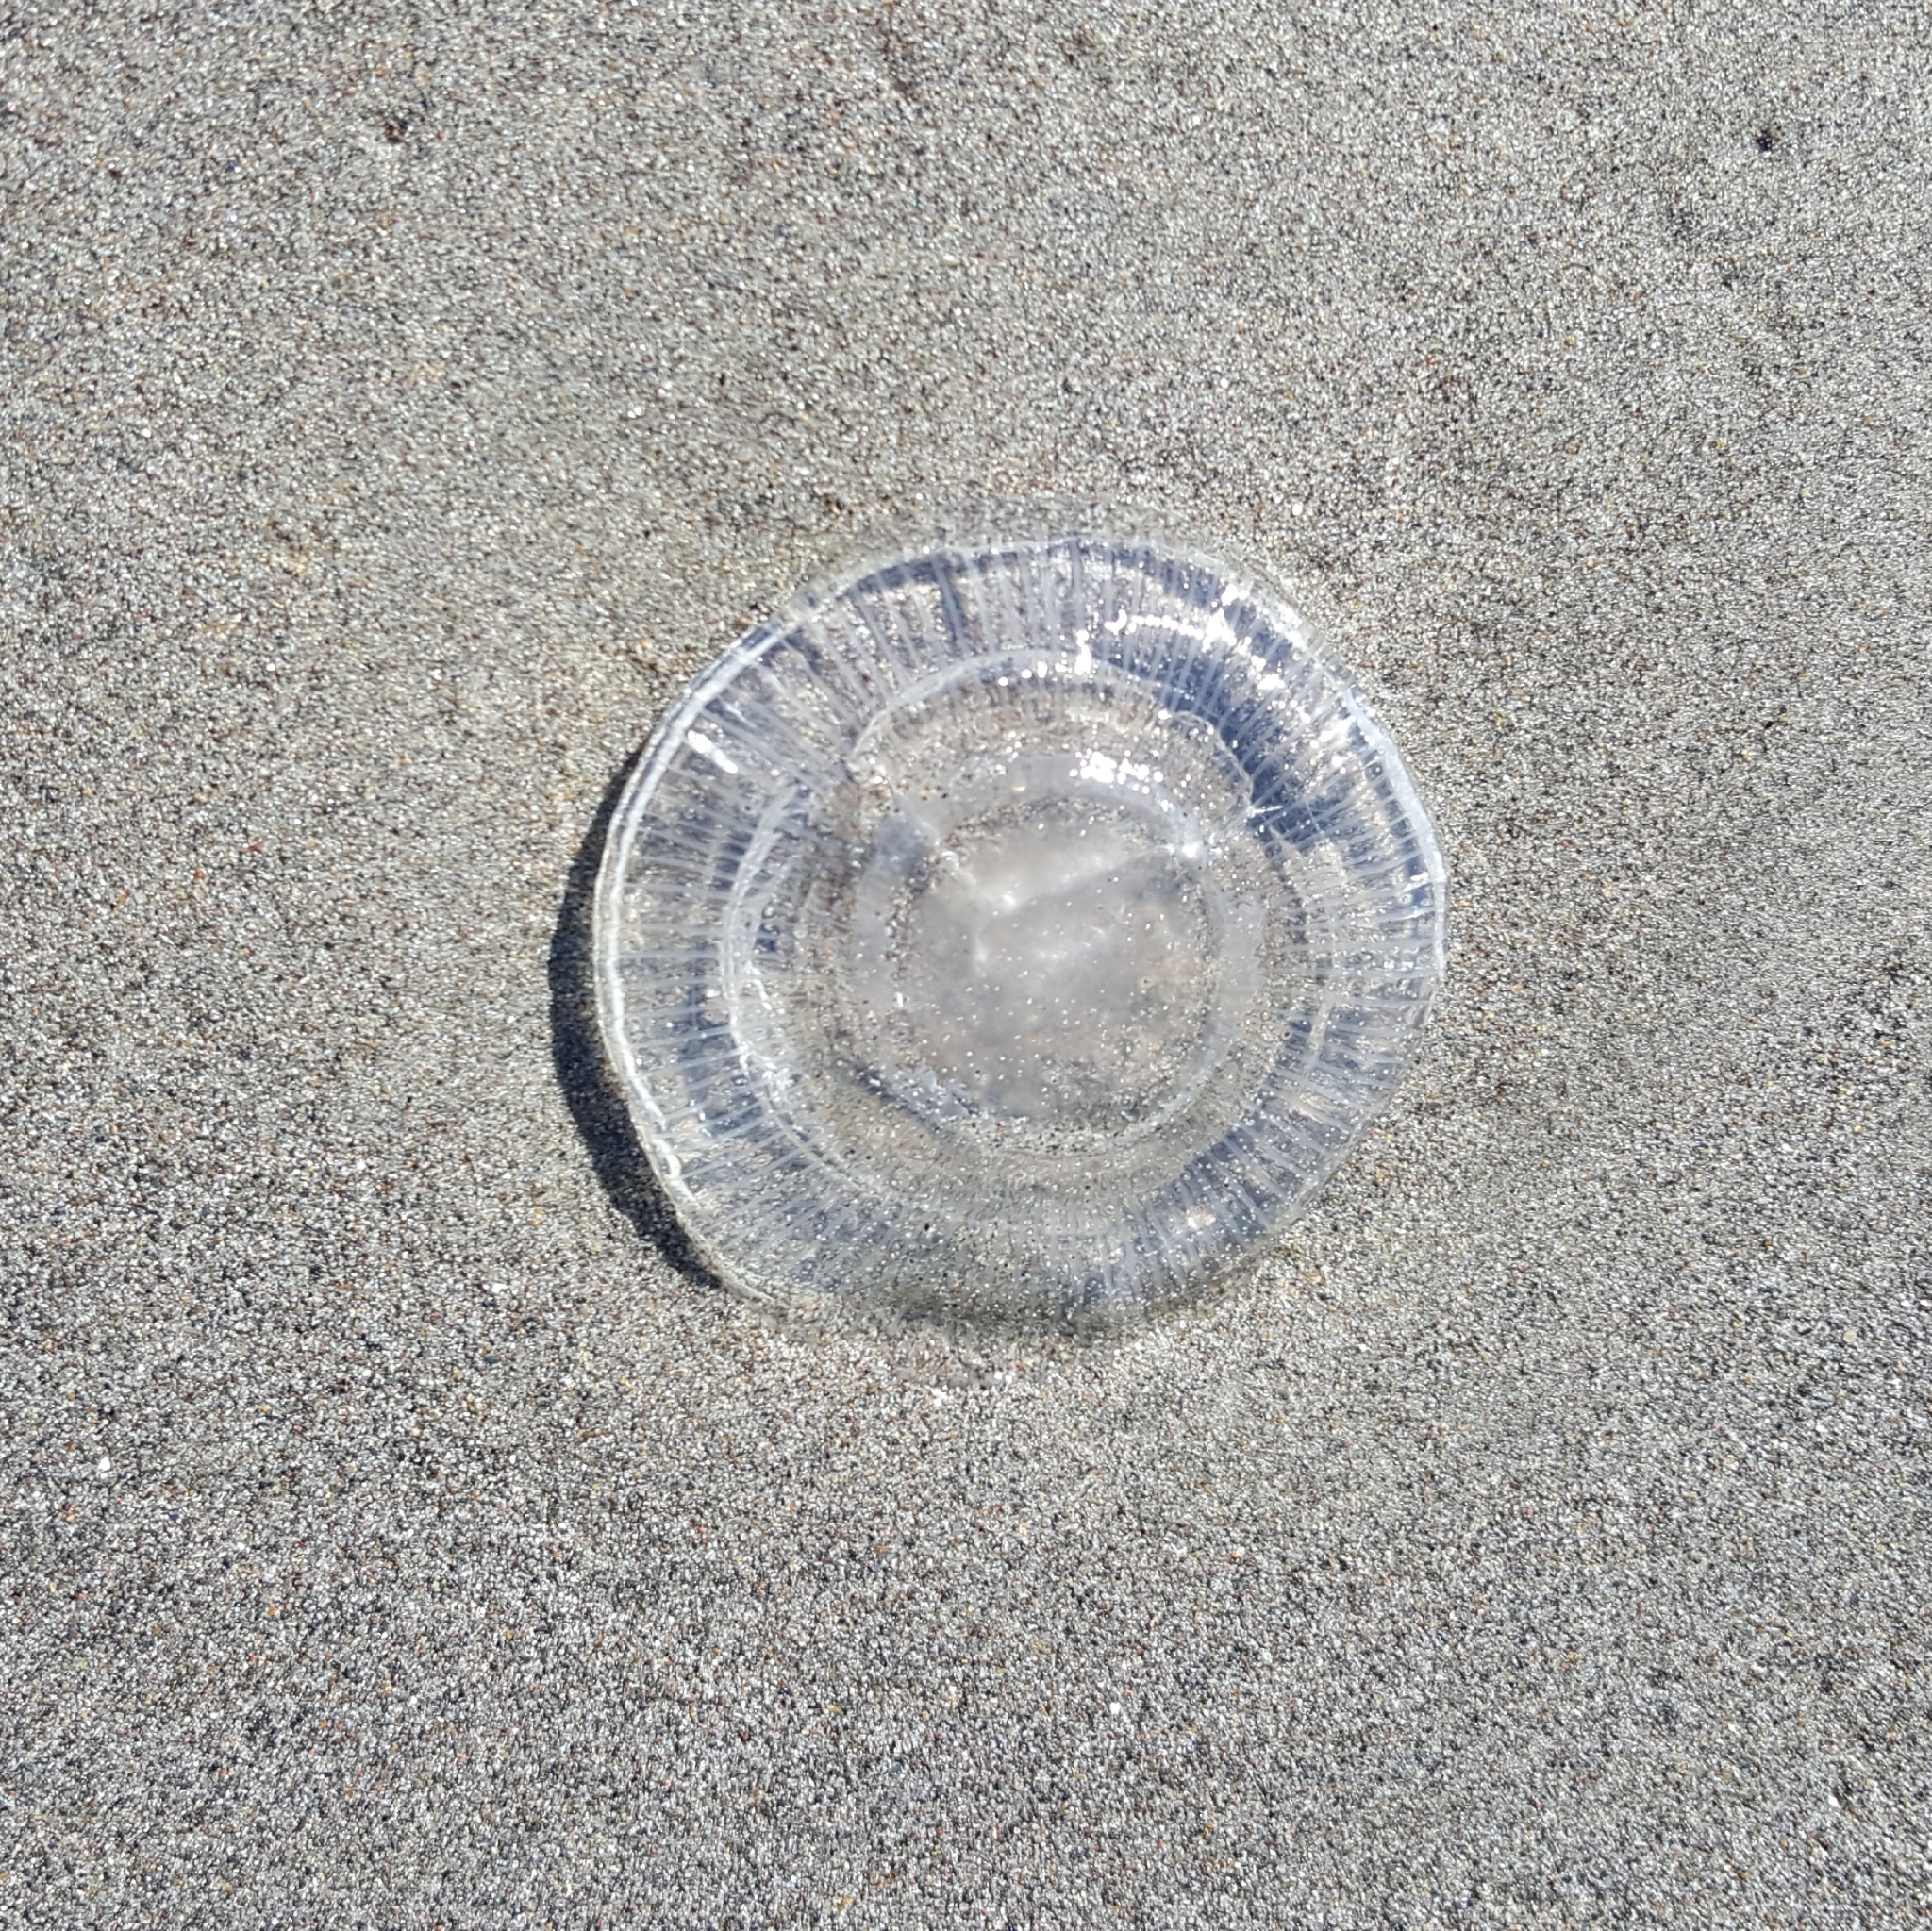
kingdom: Animalia
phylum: Cnidaria
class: Hydrozoa
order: Leptothecata
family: Aequoreidae
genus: Aequorea
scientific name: Aequorea victoria
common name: Water jellyfish
